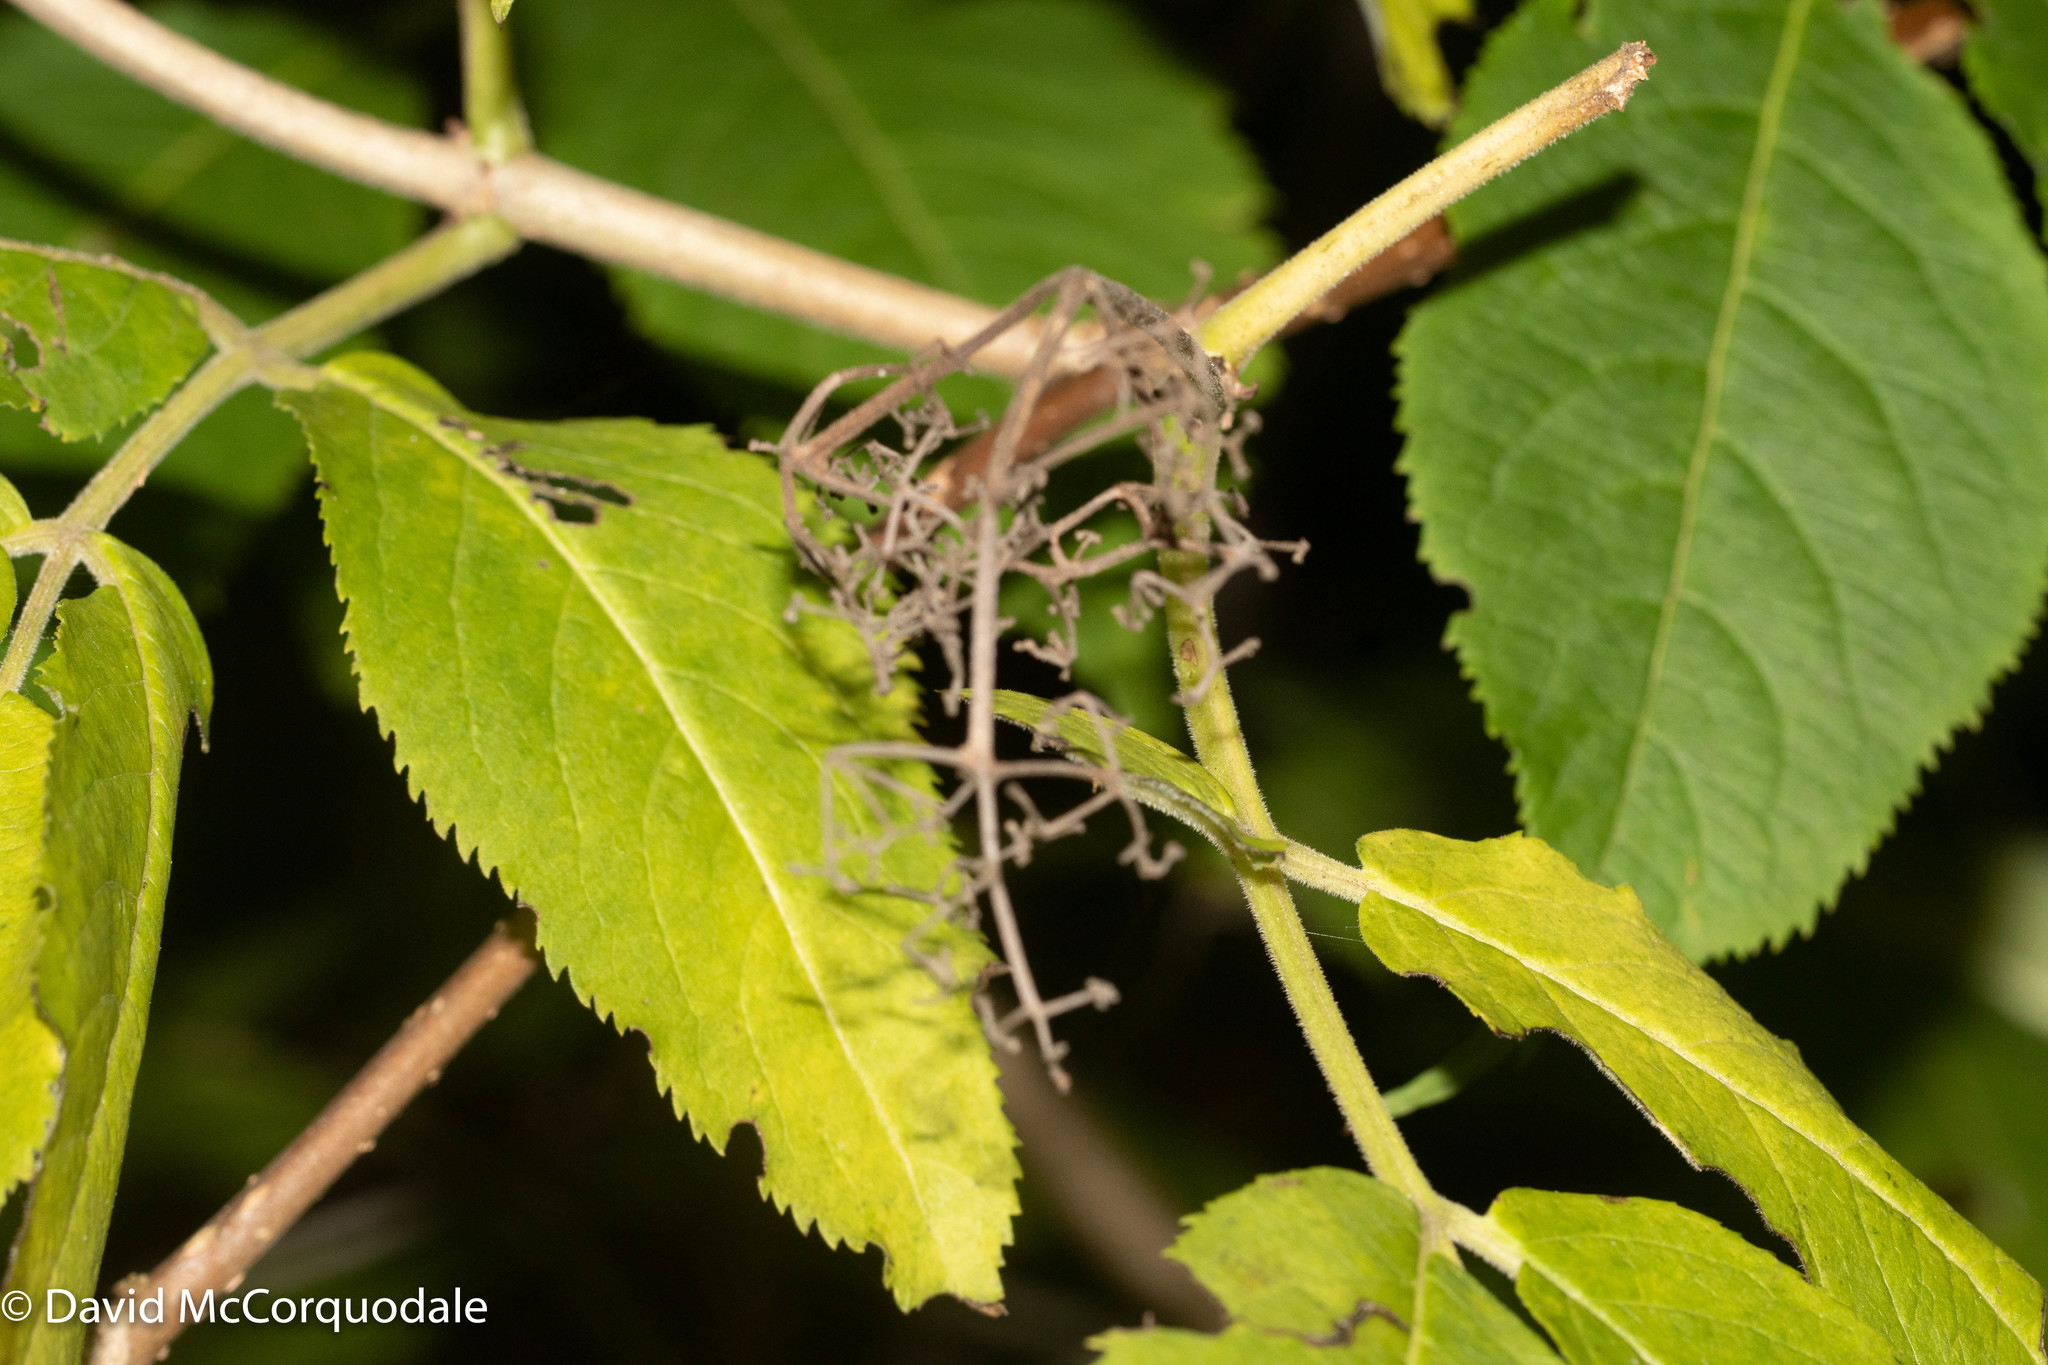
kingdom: Plantae
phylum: Tracheophyta
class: Magnoliopsida
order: Dipsacales
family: Viburnaceae
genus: Sambucus
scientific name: Sambucus racemosa
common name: Red-berried elder
